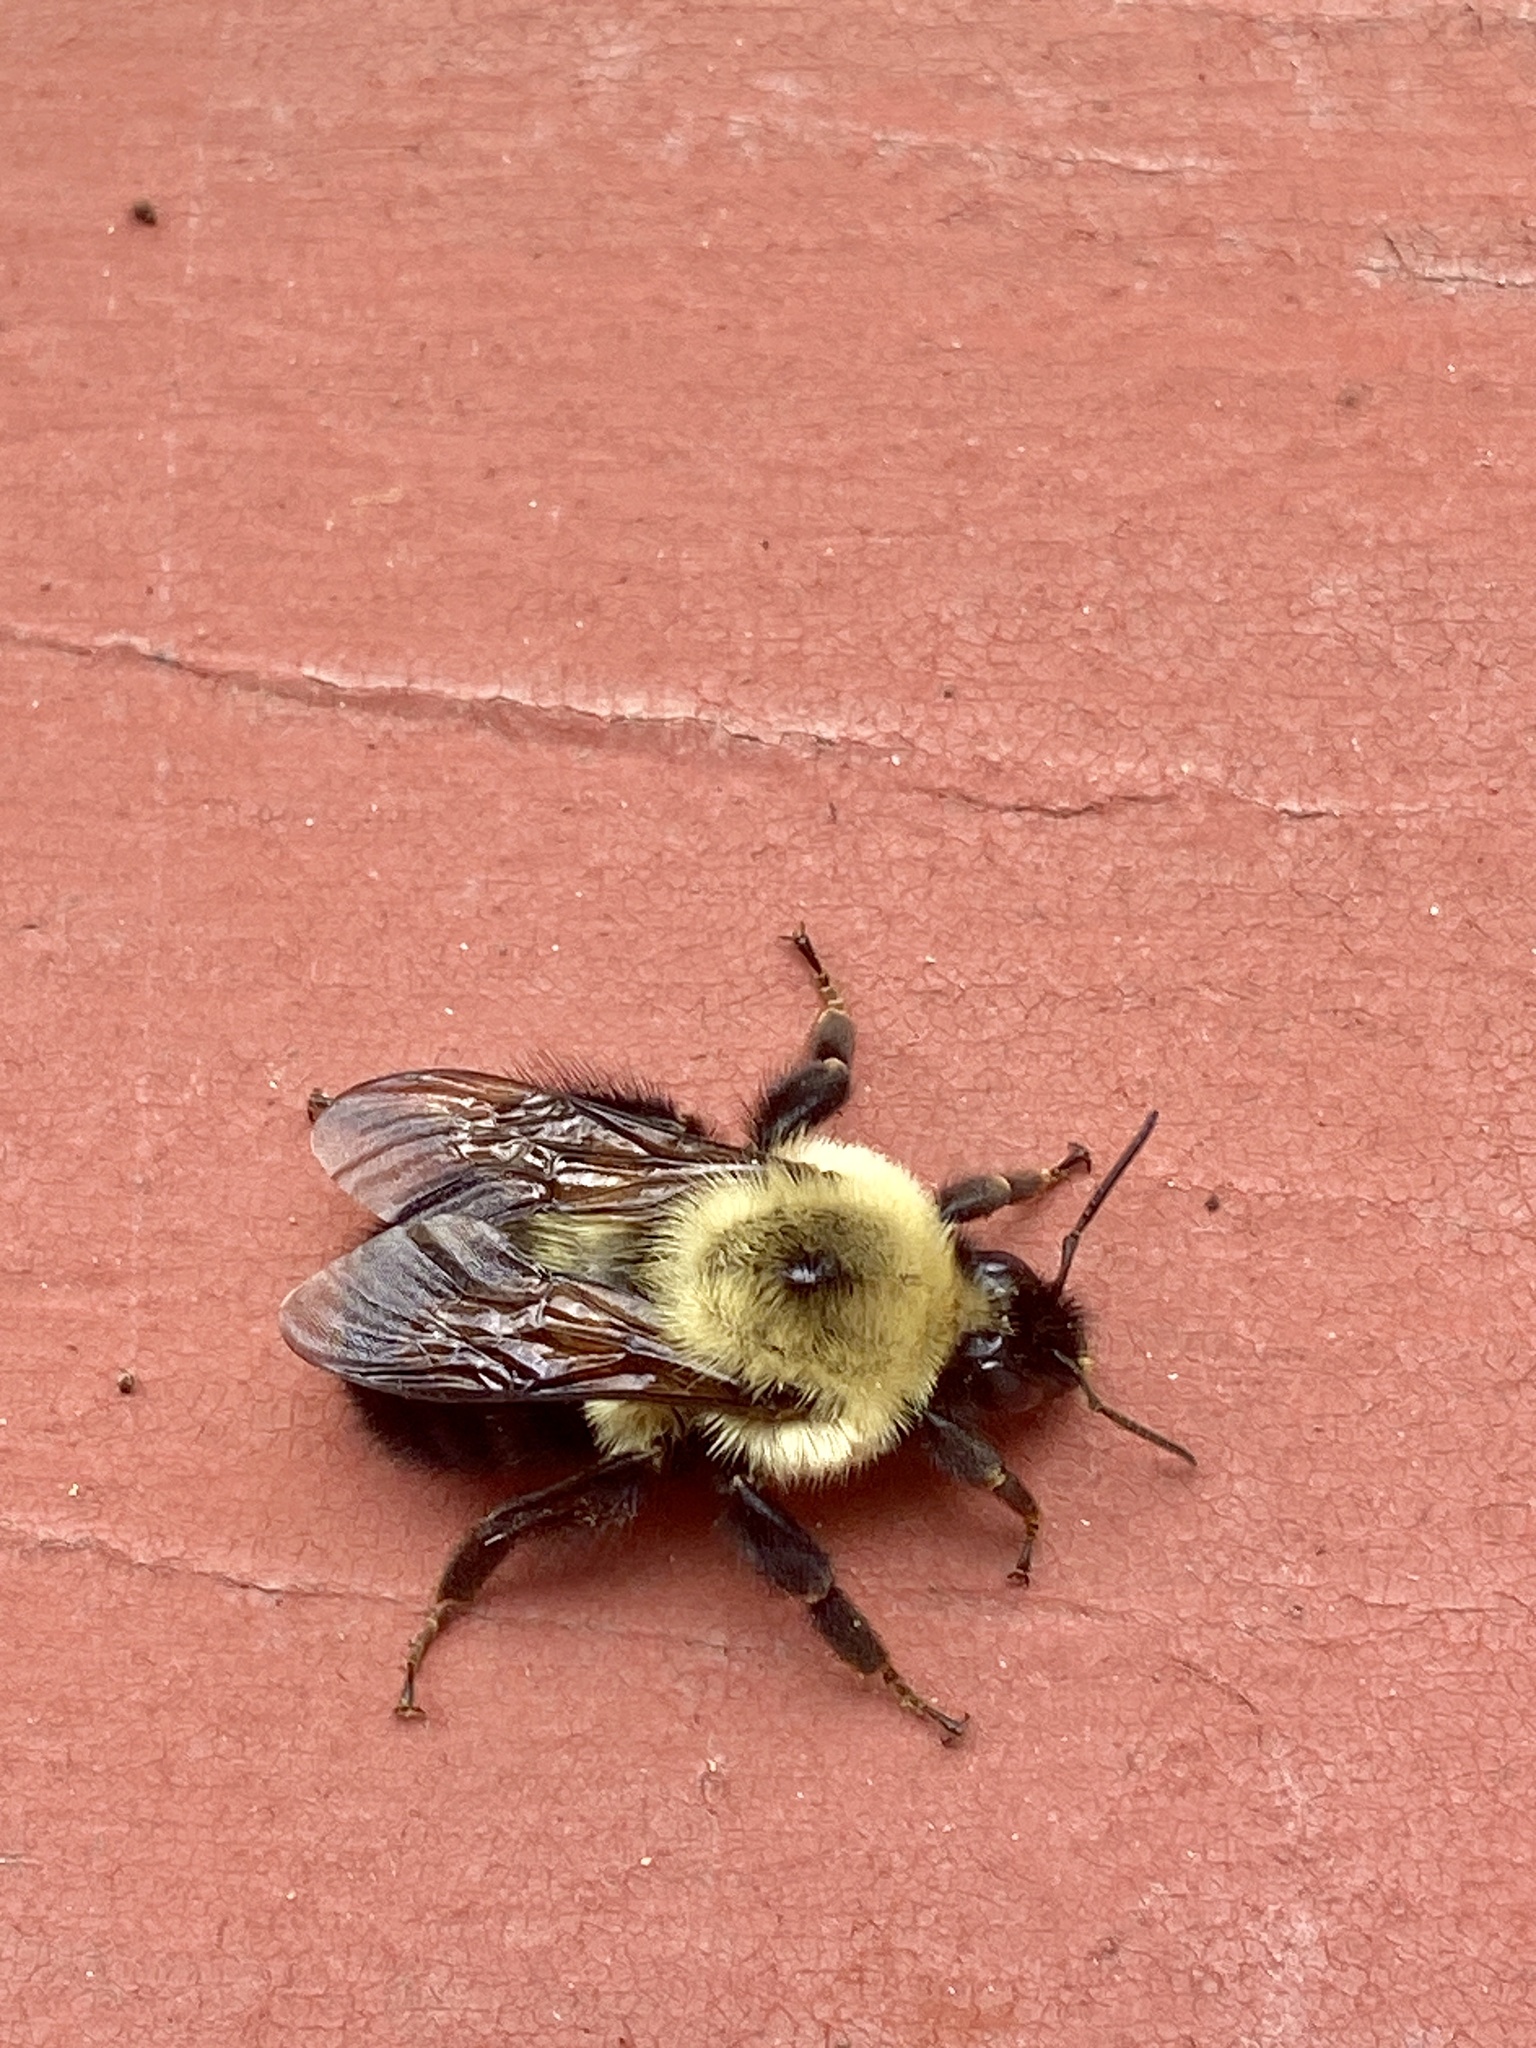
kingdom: Animalia
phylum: Arthropoda
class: Insecta
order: Hymenoptera
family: Apidae
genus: Bombus
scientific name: Bombus bimaculatus
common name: Two-spotted bumble bee
